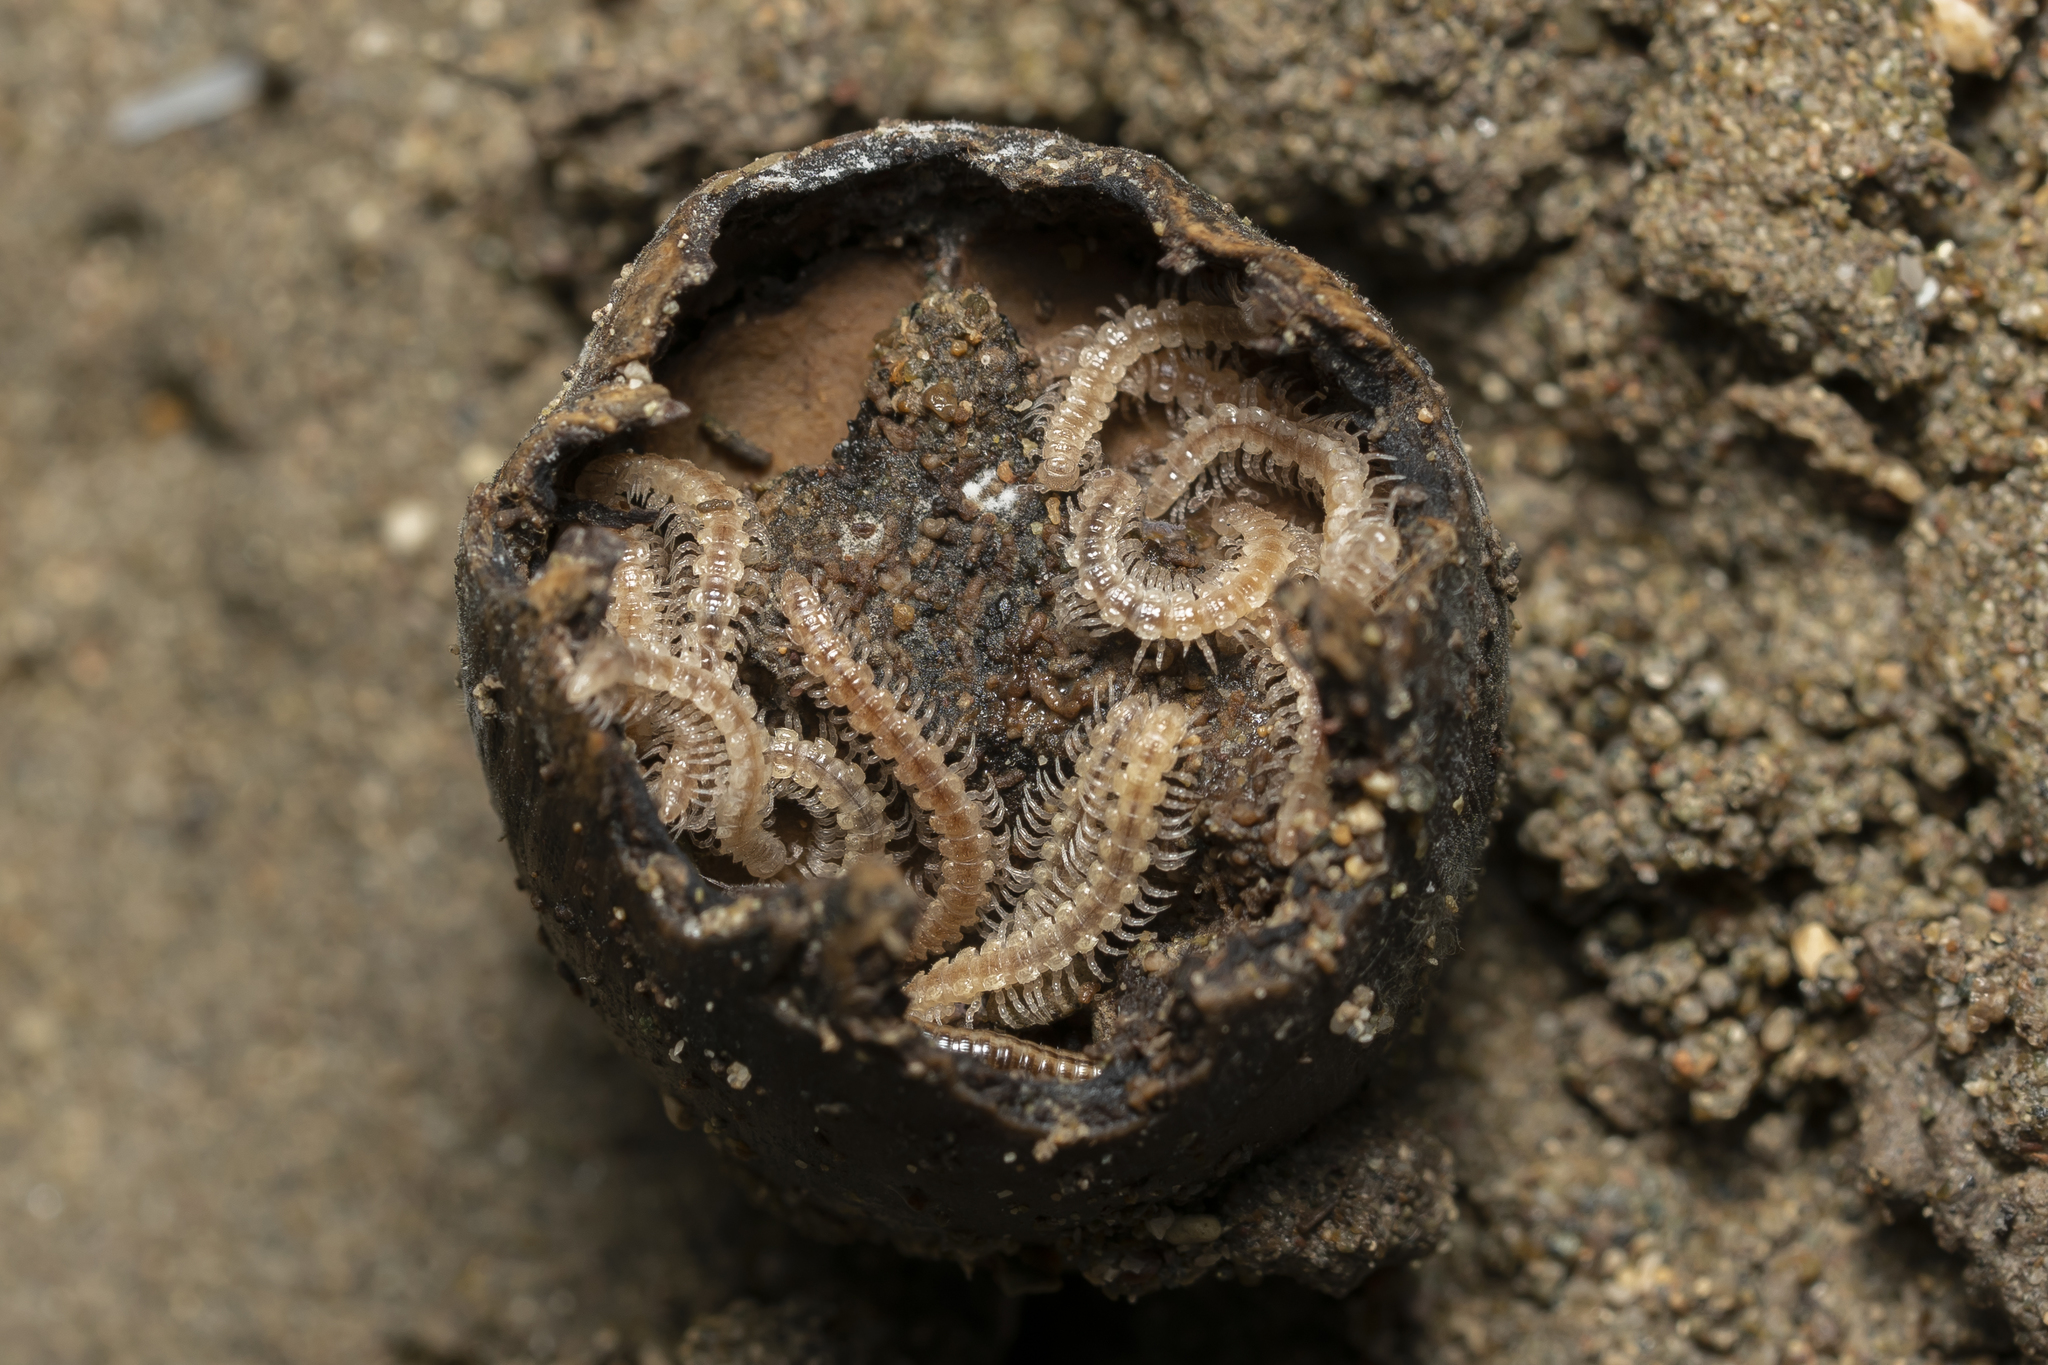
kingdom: Animalia
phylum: Arthropoda
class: Diplopoda
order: Polydesmida
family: Polydesmidae
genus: Polydesmus
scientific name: Polydesmus graecus
